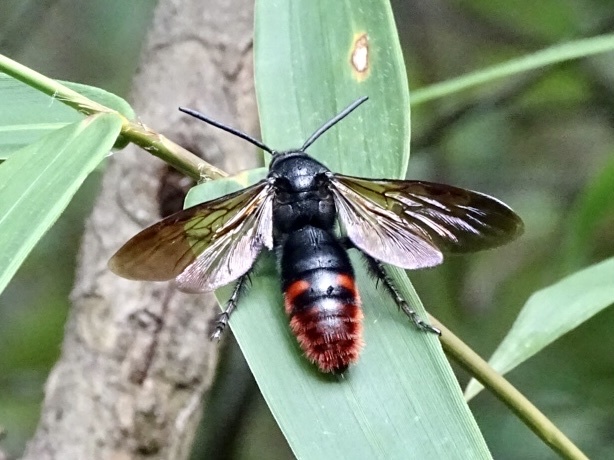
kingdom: Animalia
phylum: Arthropoda
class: Insecta
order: Hymenoptera
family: Scoliidae
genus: Megascolia
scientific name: Megascolia azurea
